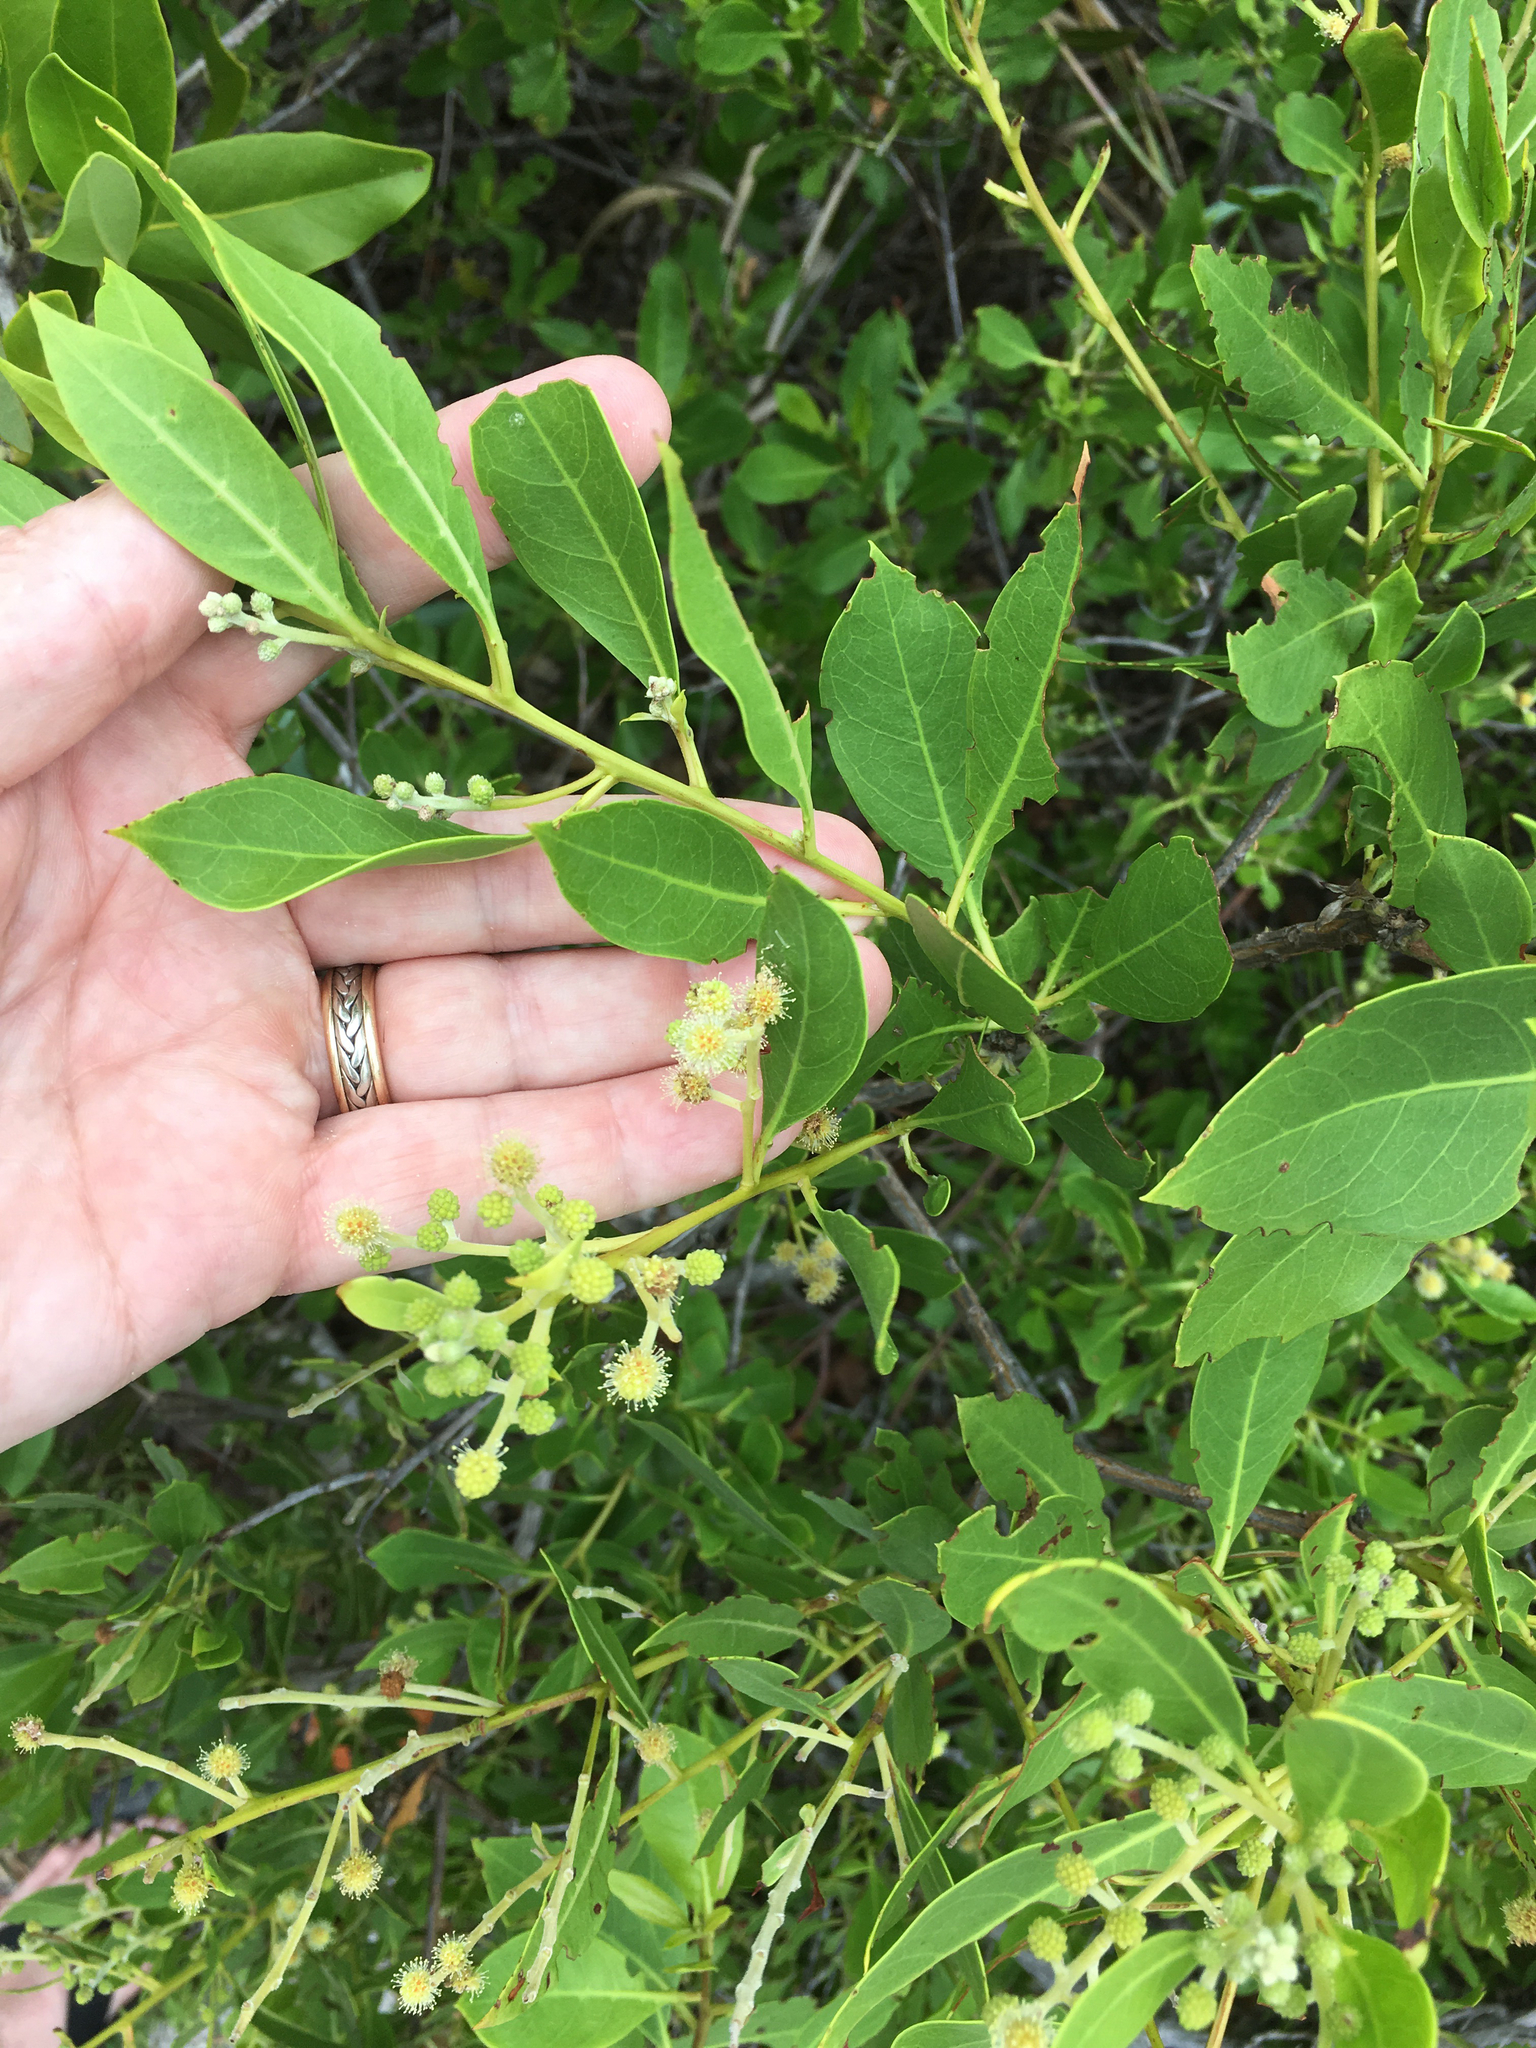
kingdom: Plantae
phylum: Tracheophyta
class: Magnoliopsida
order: Myrtales
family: Combretaceae
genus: Conocarpus
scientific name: Conocarpus erectus
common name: Button mangrove
